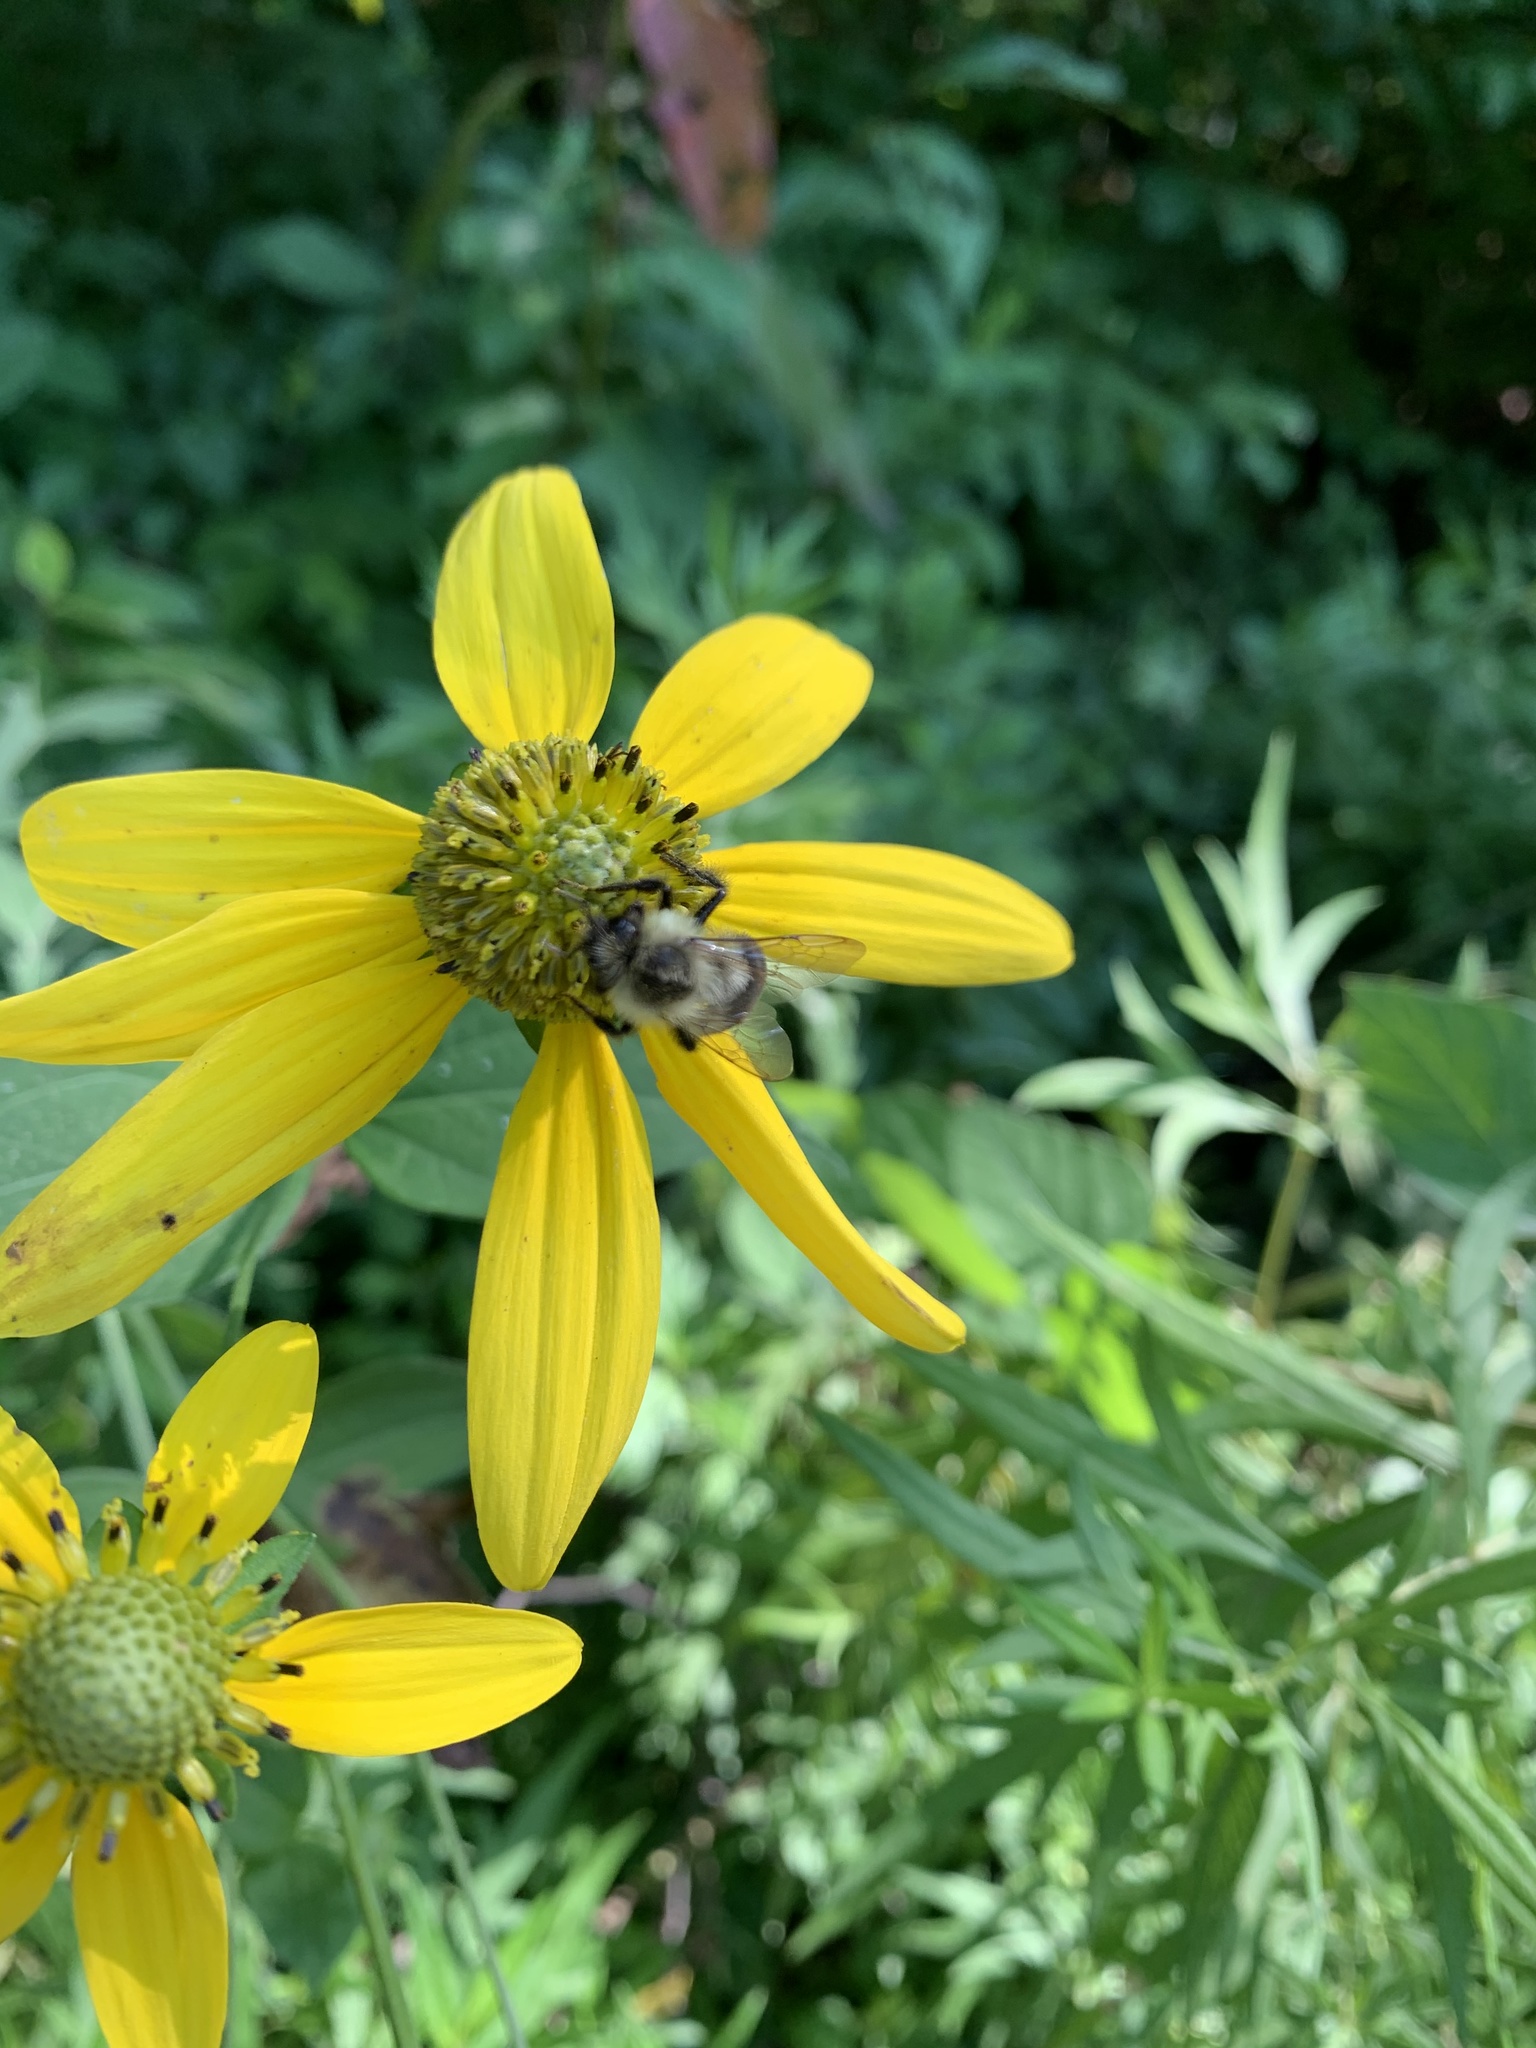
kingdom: Animalia
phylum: Arthropoda
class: Insecta
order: Hymenoptera
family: Apidae
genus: Bombus
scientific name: Bombus impatiens
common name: Common eastern bumble bee
